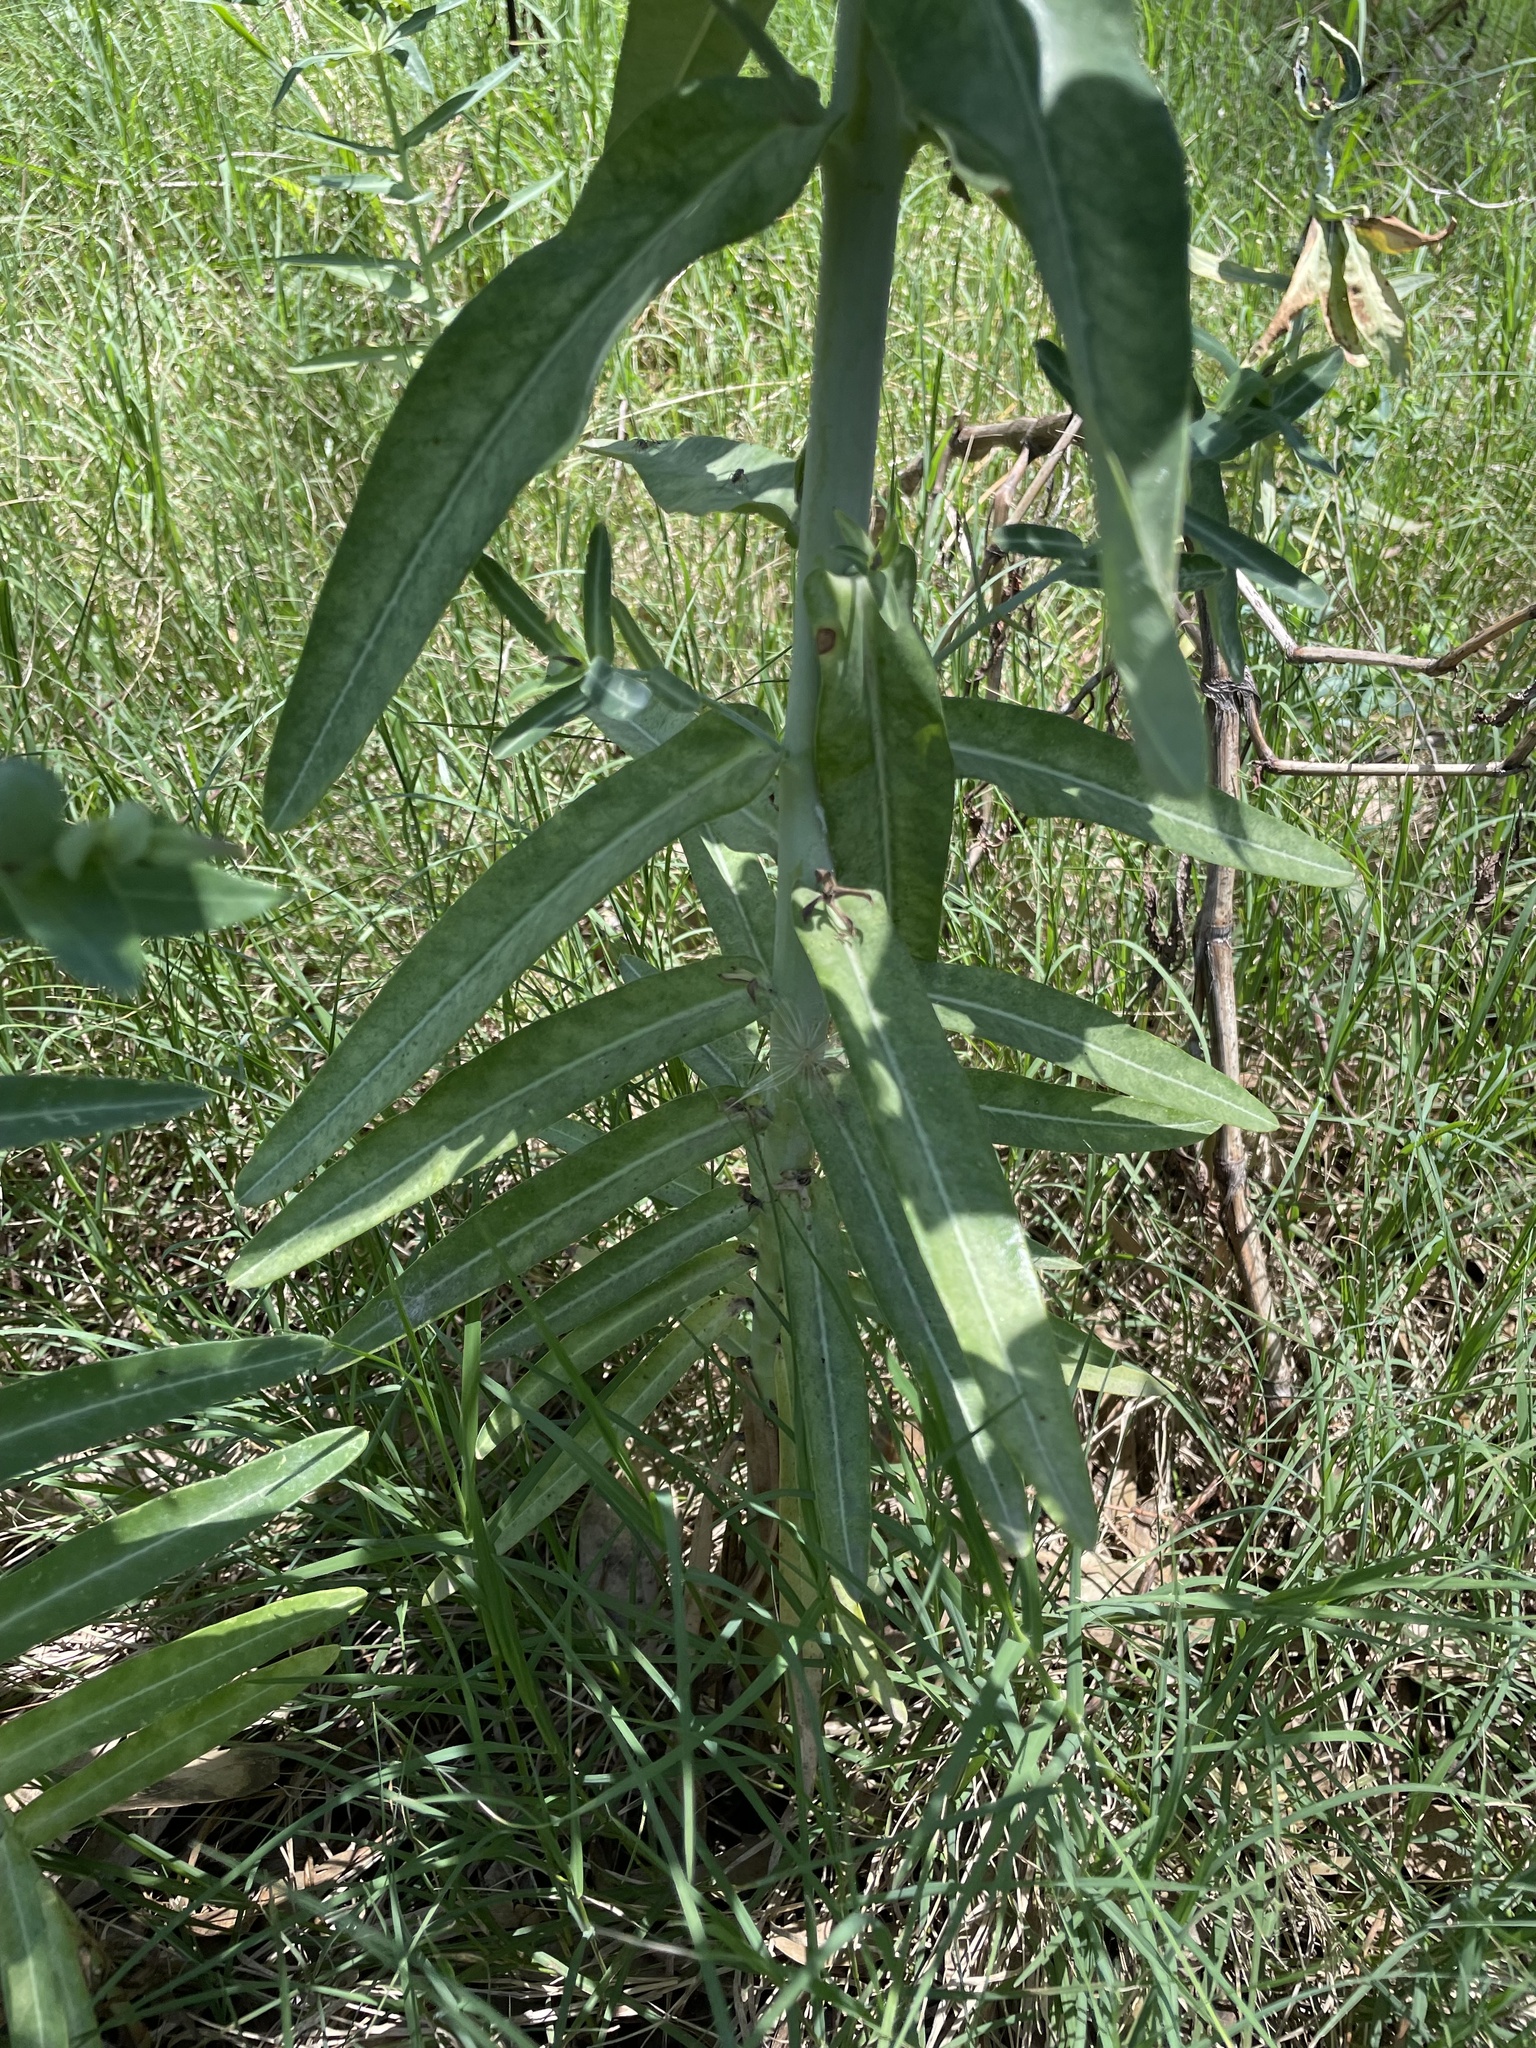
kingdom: Plantae
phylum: Tracheophyta
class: Magnoliopsida
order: Malpighiales
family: Euphorbiaceae
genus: Euphorbia
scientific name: Euphorbia lathyris
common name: Caper spurge
